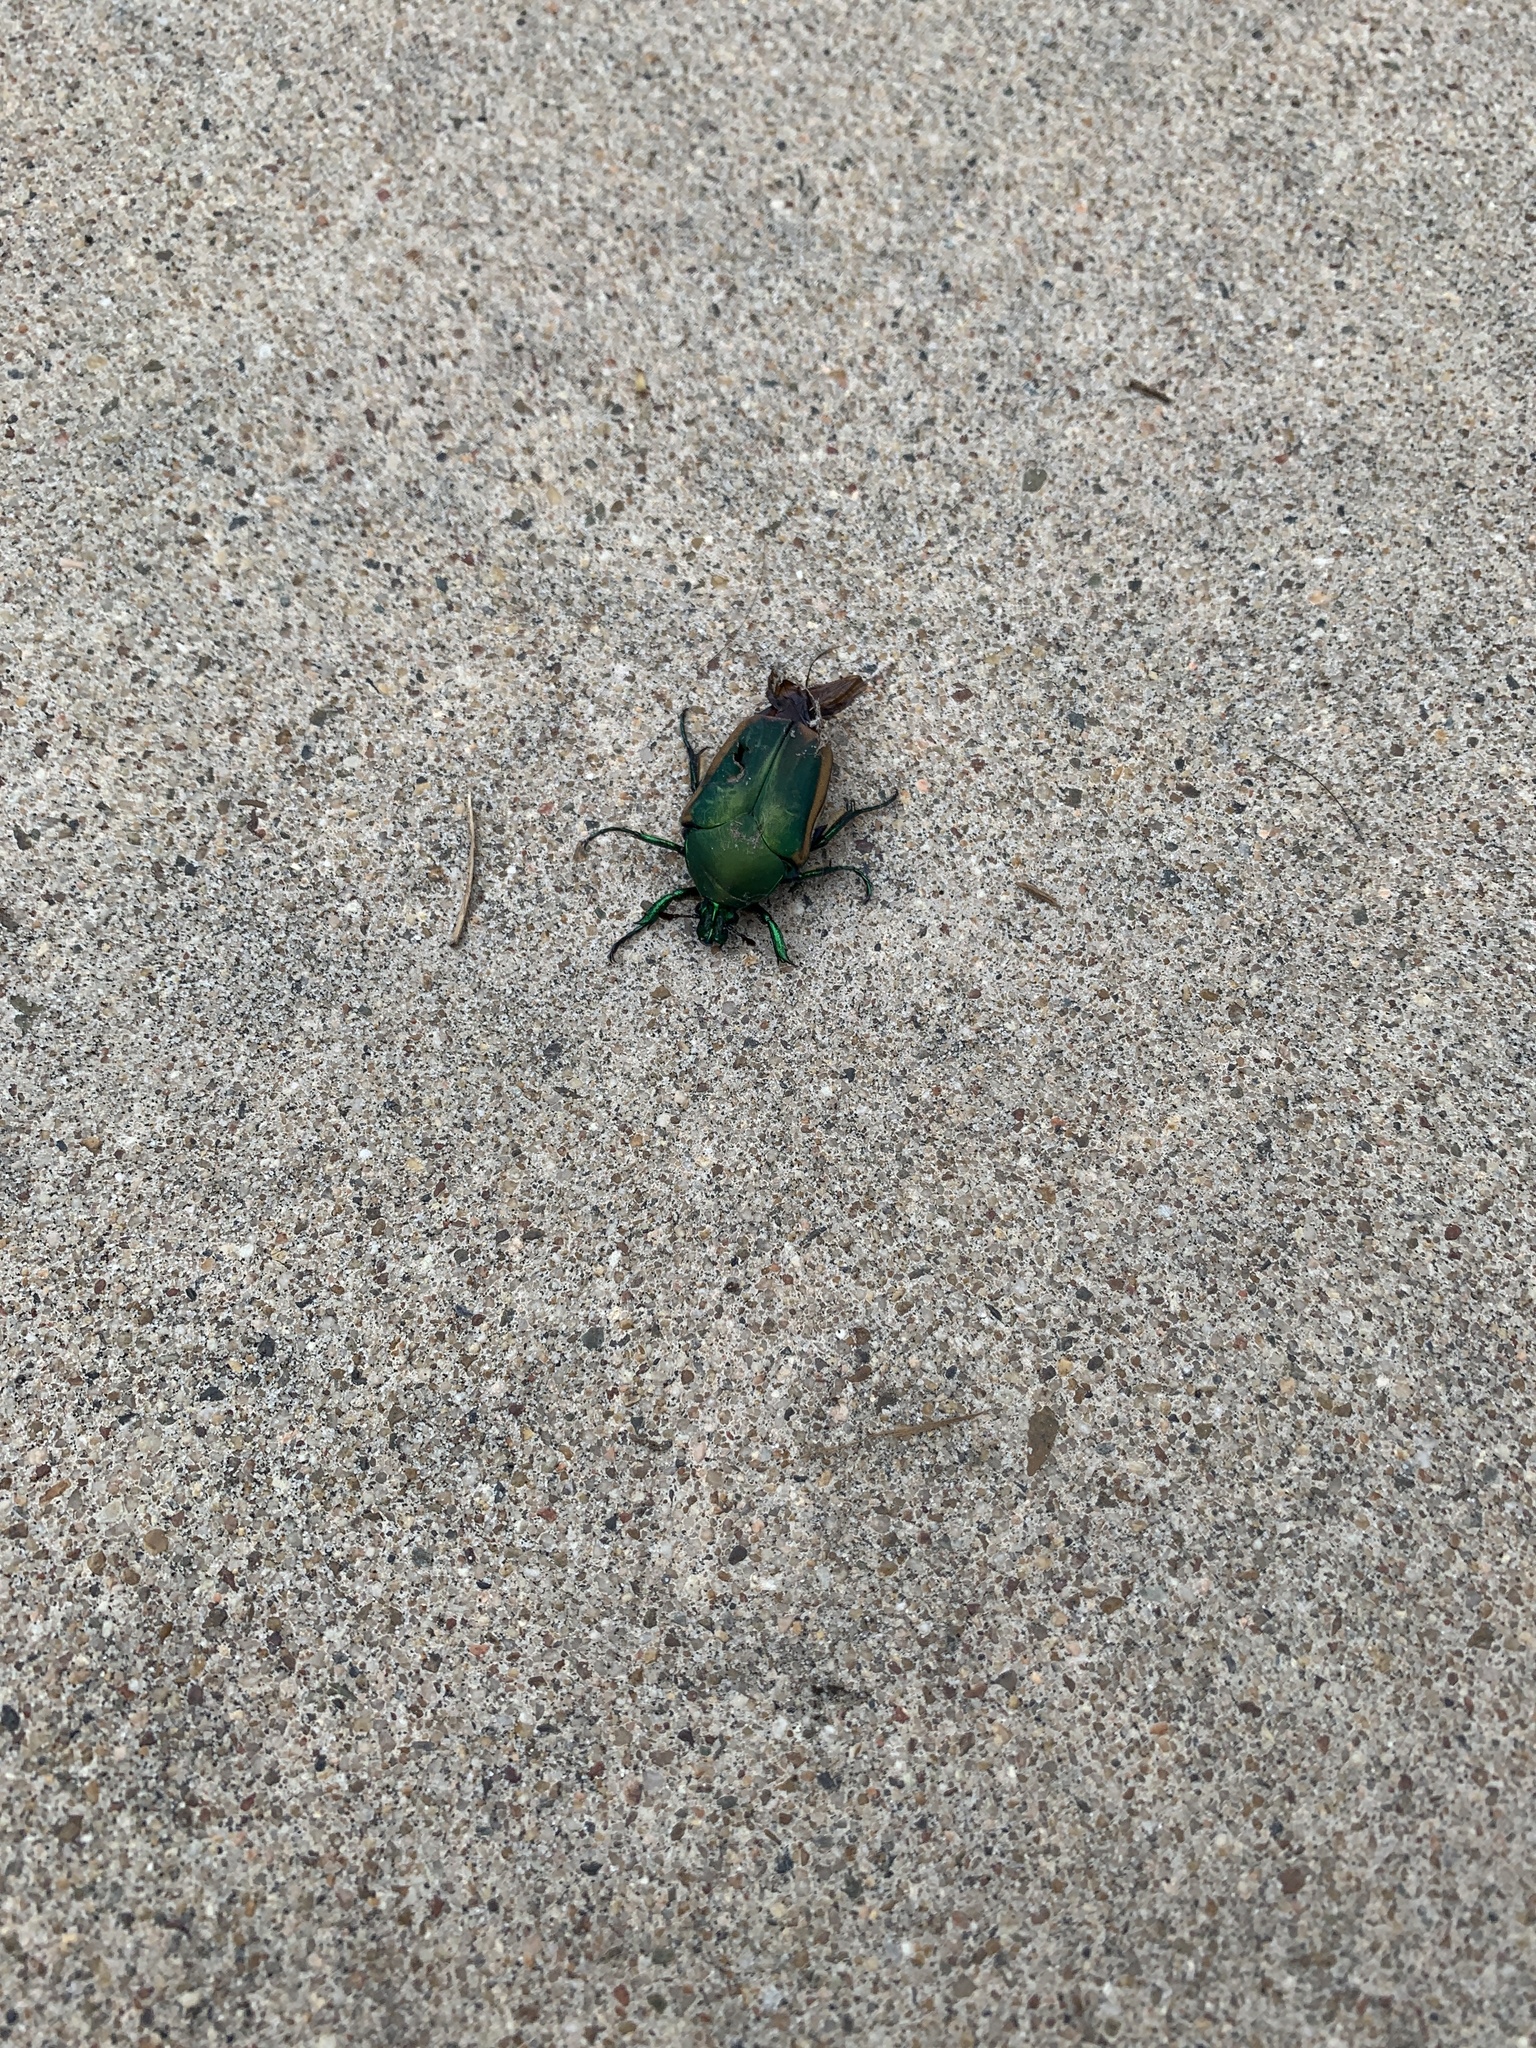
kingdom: Animalia
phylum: Arthropoda
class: Insecta
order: Coleoptera
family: Scarabaeidae
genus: Cotinis
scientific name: Cotinis mutabilis
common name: Figeater beetle
